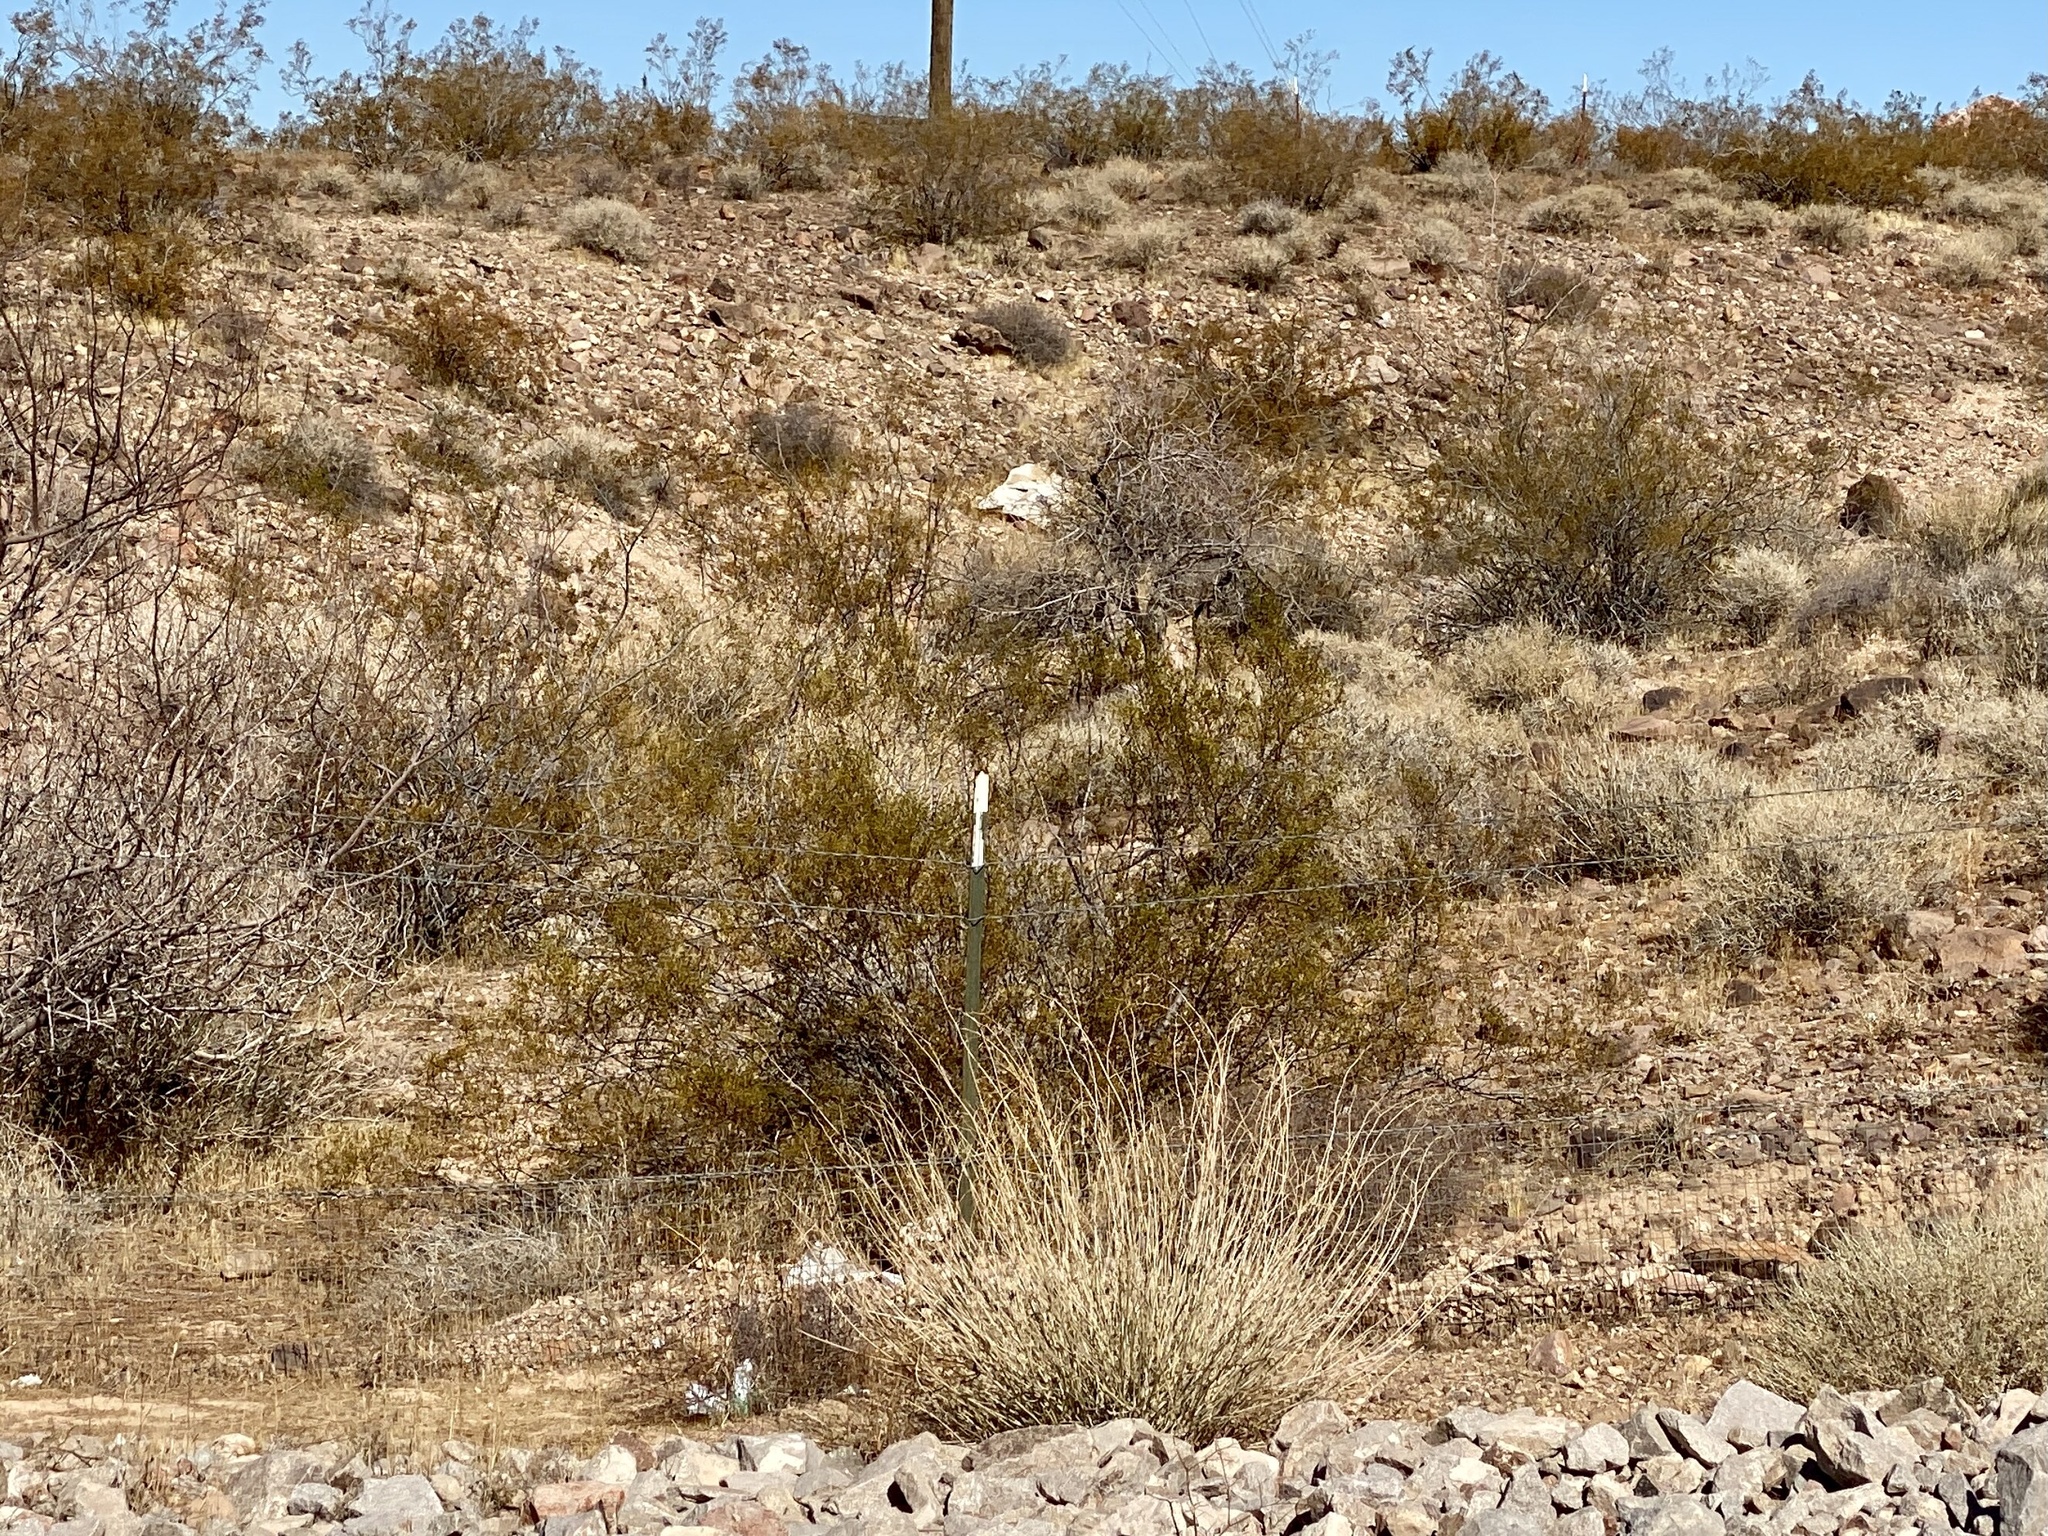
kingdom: Plantae
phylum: Tracheophyta
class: Magnoliopsida
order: Zygophyllales
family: Zygophyllaceae
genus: Larrea
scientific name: Larrea tridentata
